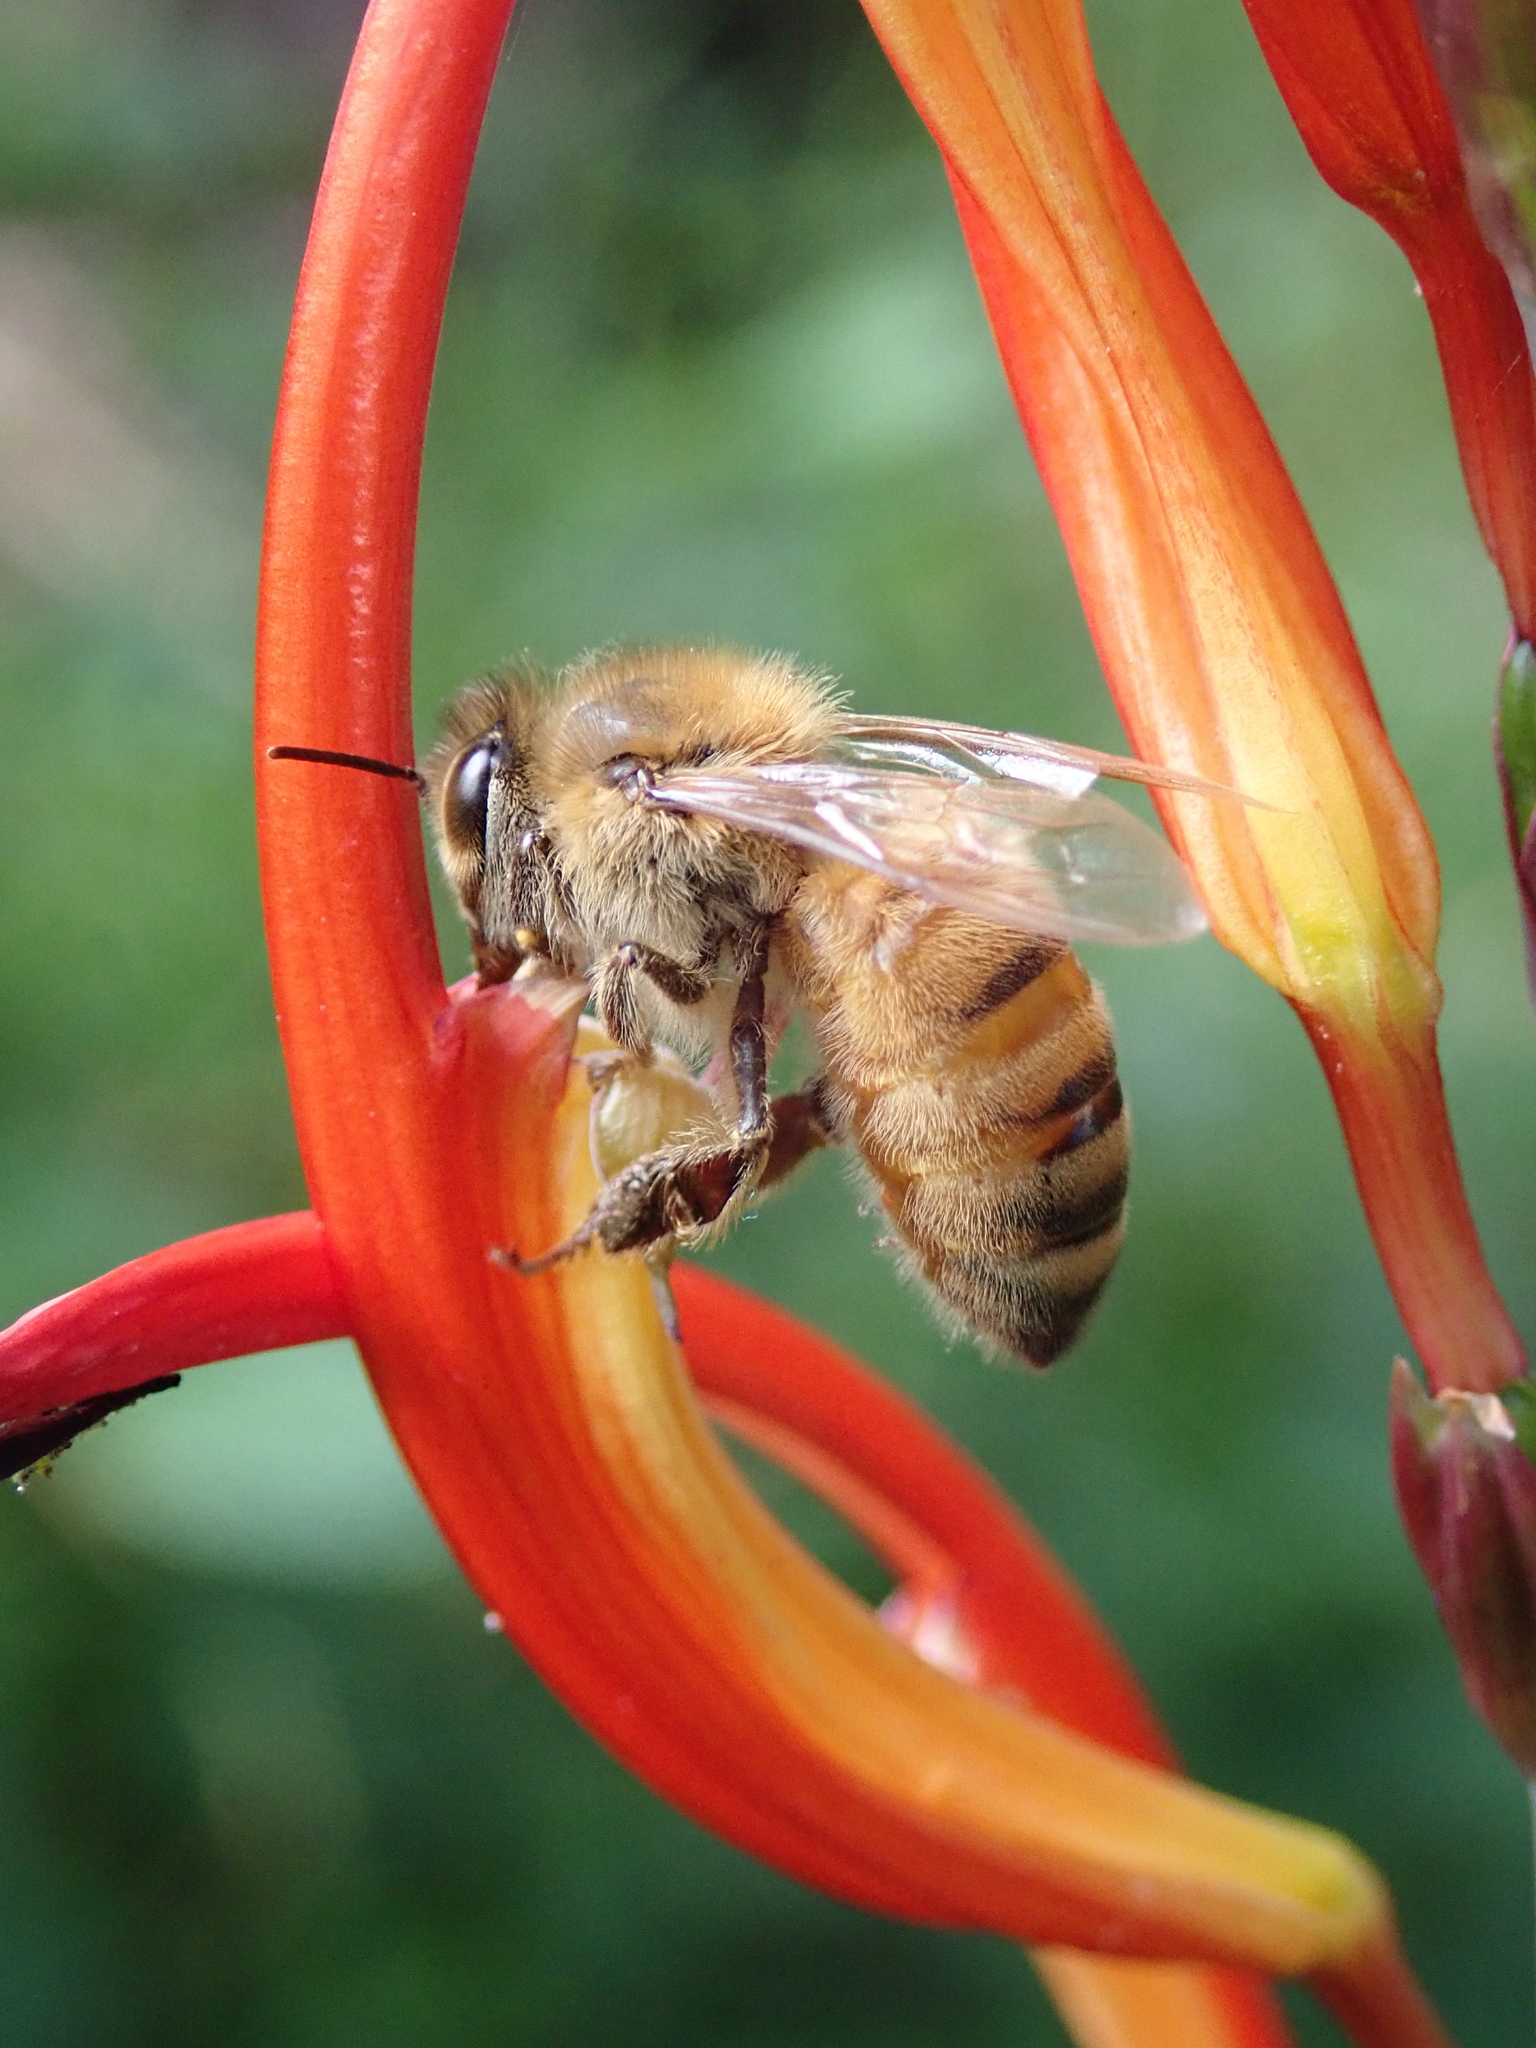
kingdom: Animalia
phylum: Arthropoda
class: Insecta
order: Hymenoptera
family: Apidae
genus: Apis
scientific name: Apis mellifera
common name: Honey bee
